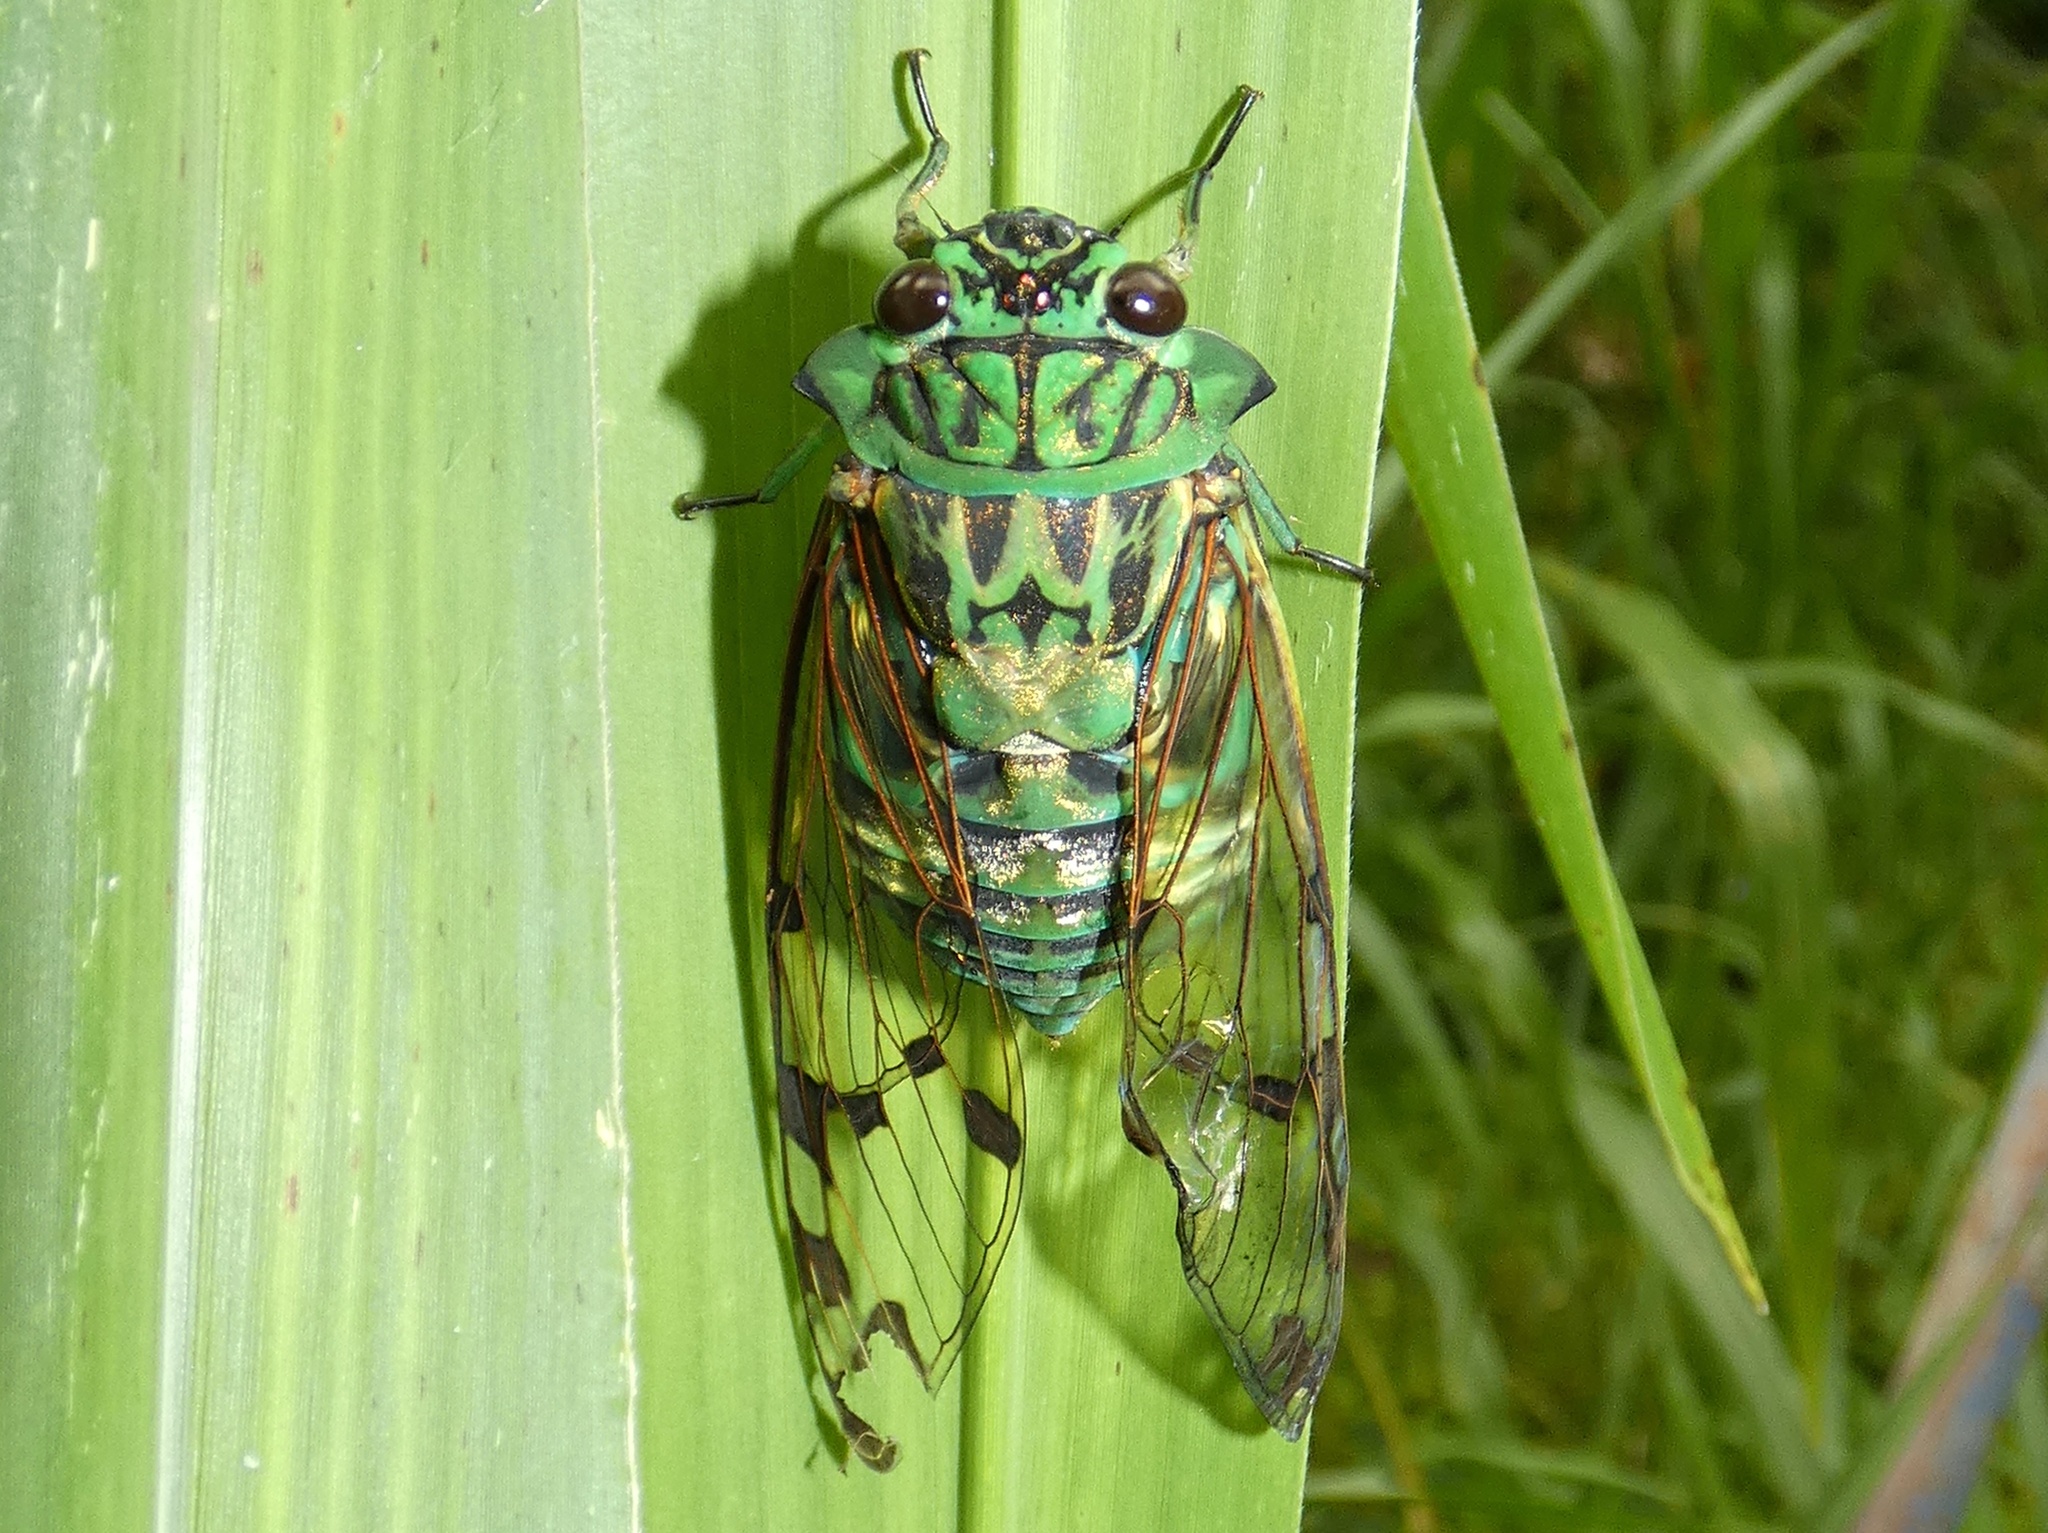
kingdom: Animalia
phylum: Arthropoda
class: Insecta
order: Hemiptera
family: Cicadidae
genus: Zammara
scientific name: Zammara smaragdina
